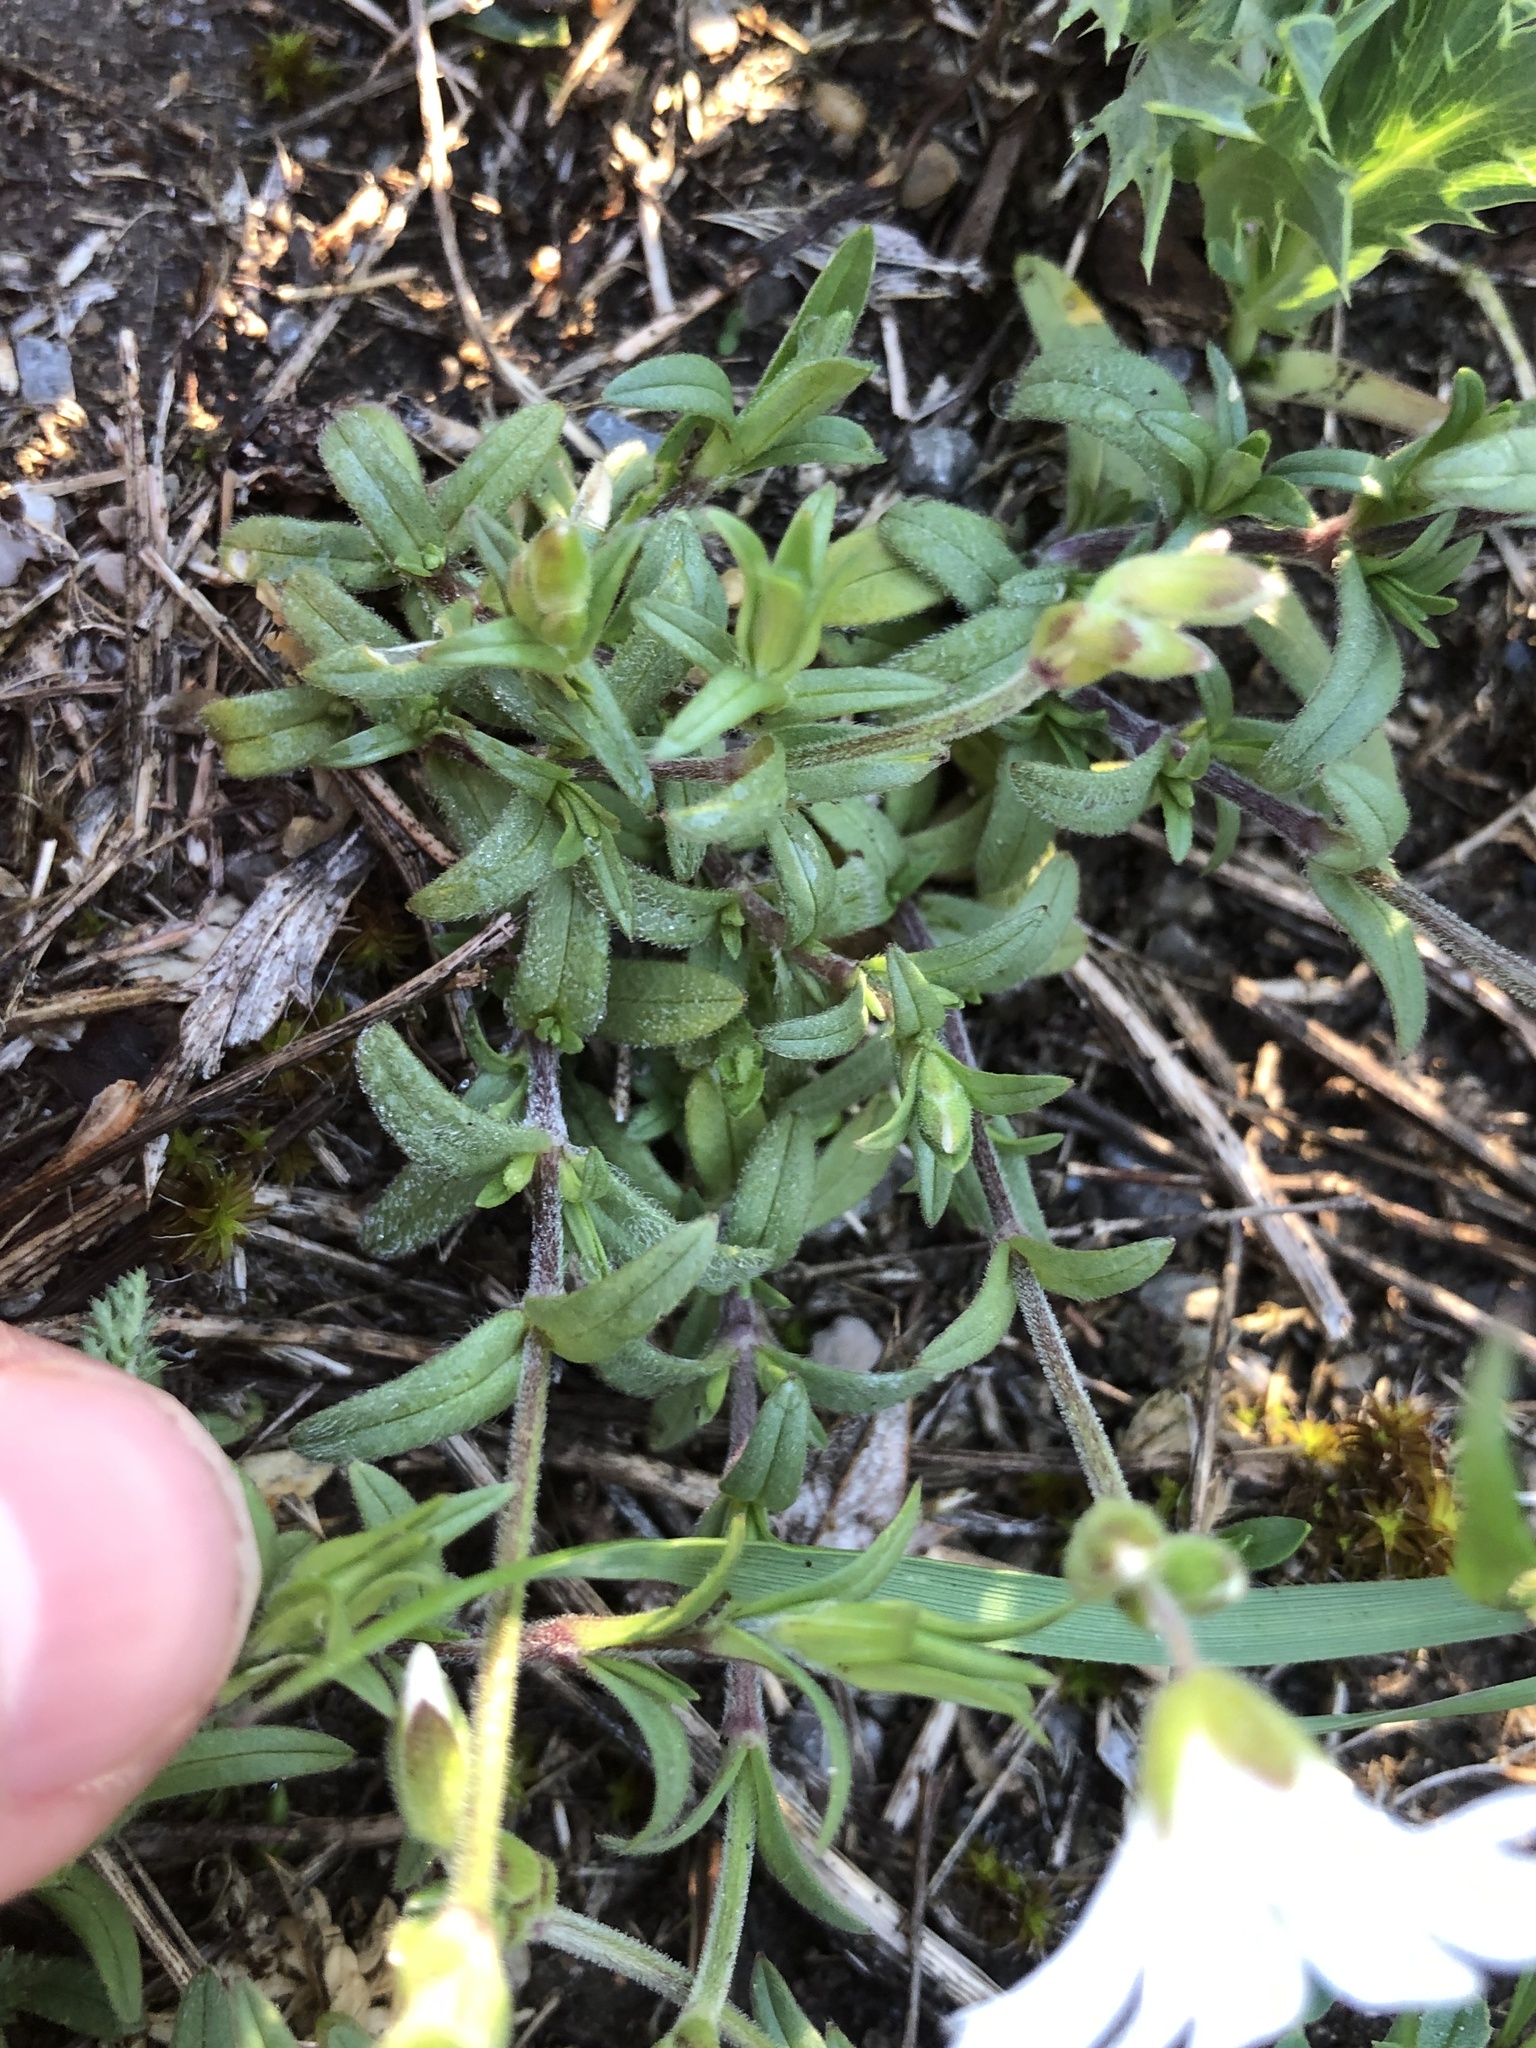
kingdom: Plantae
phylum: Tracheophyta
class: Magnoliopsida
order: Caryophyllales
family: Caryophyllaceae
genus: Cerastium
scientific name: Cerastium arvense
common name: Field mouse-ear
